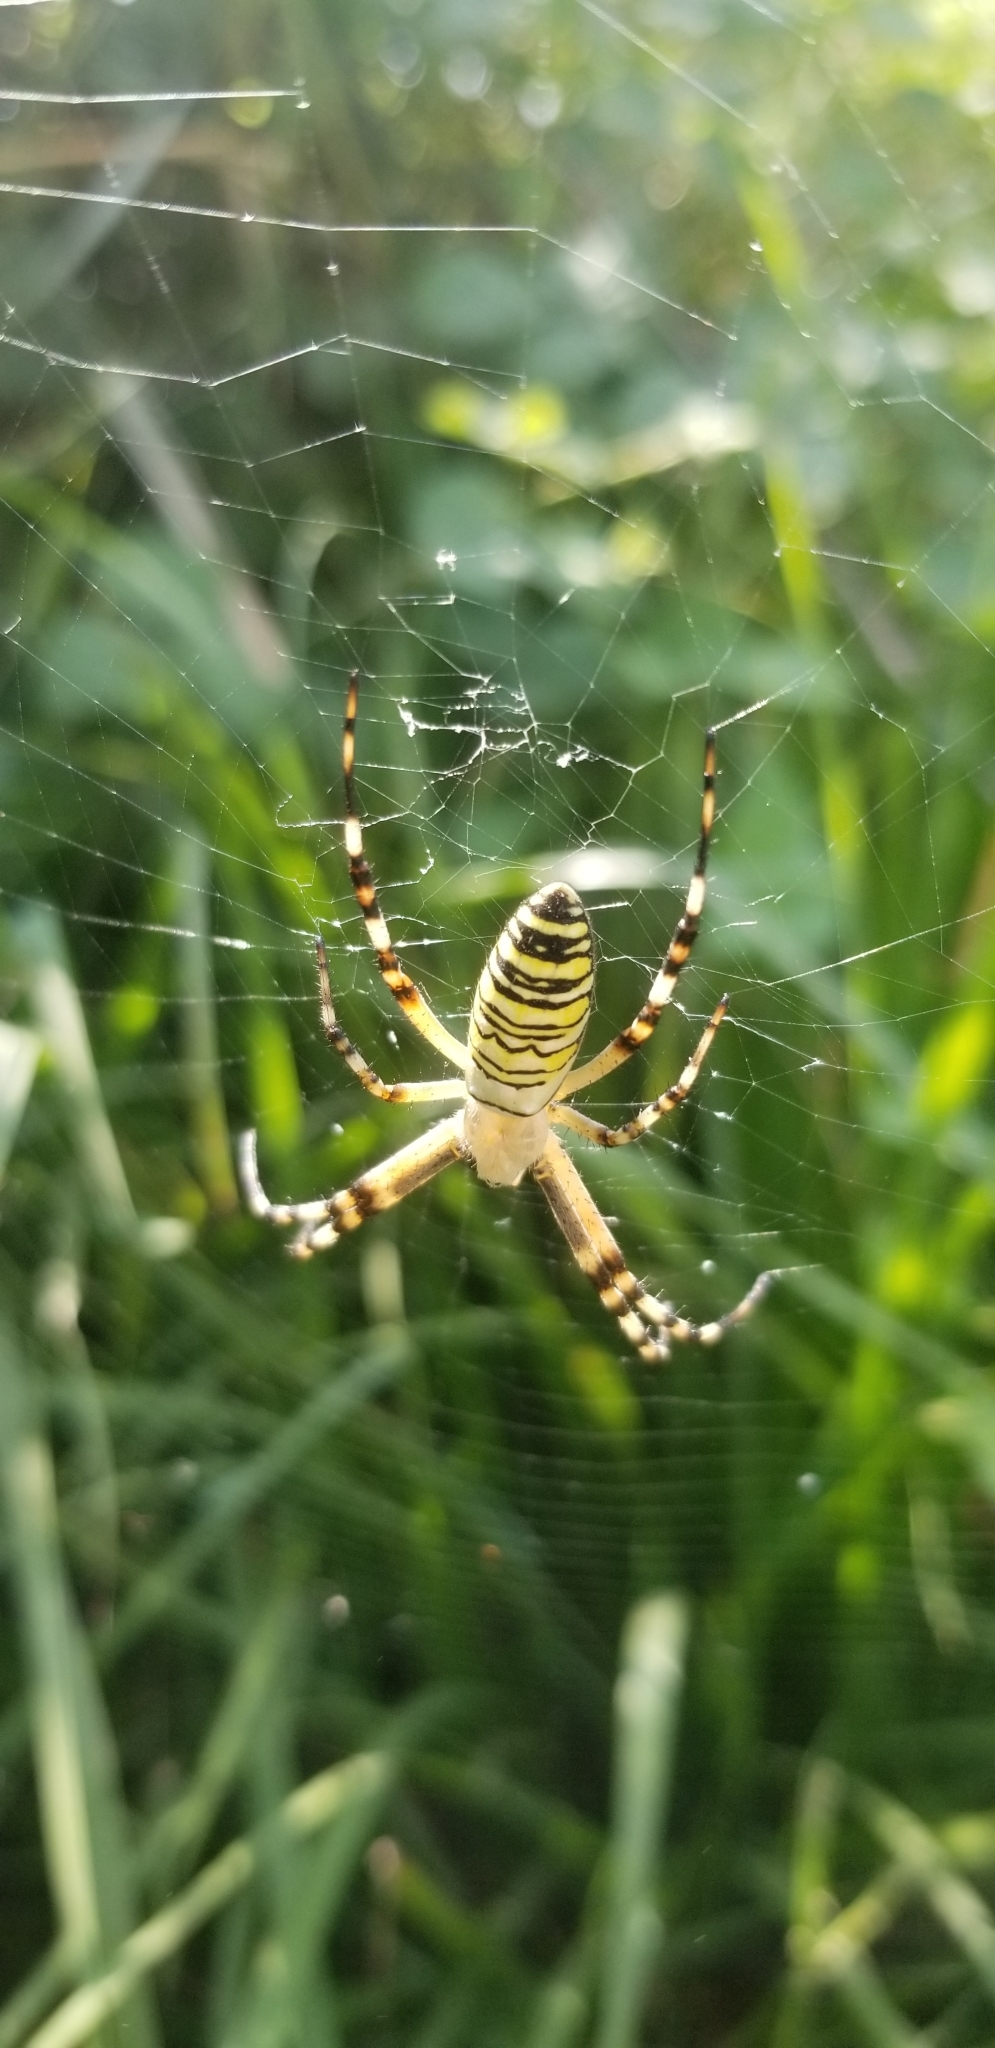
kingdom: Animalia
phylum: Arthropoda
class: Arachnida
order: Araneae
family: Araneidae
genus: Argiope
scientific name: Argiope bruennichi
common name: Wasp spider
